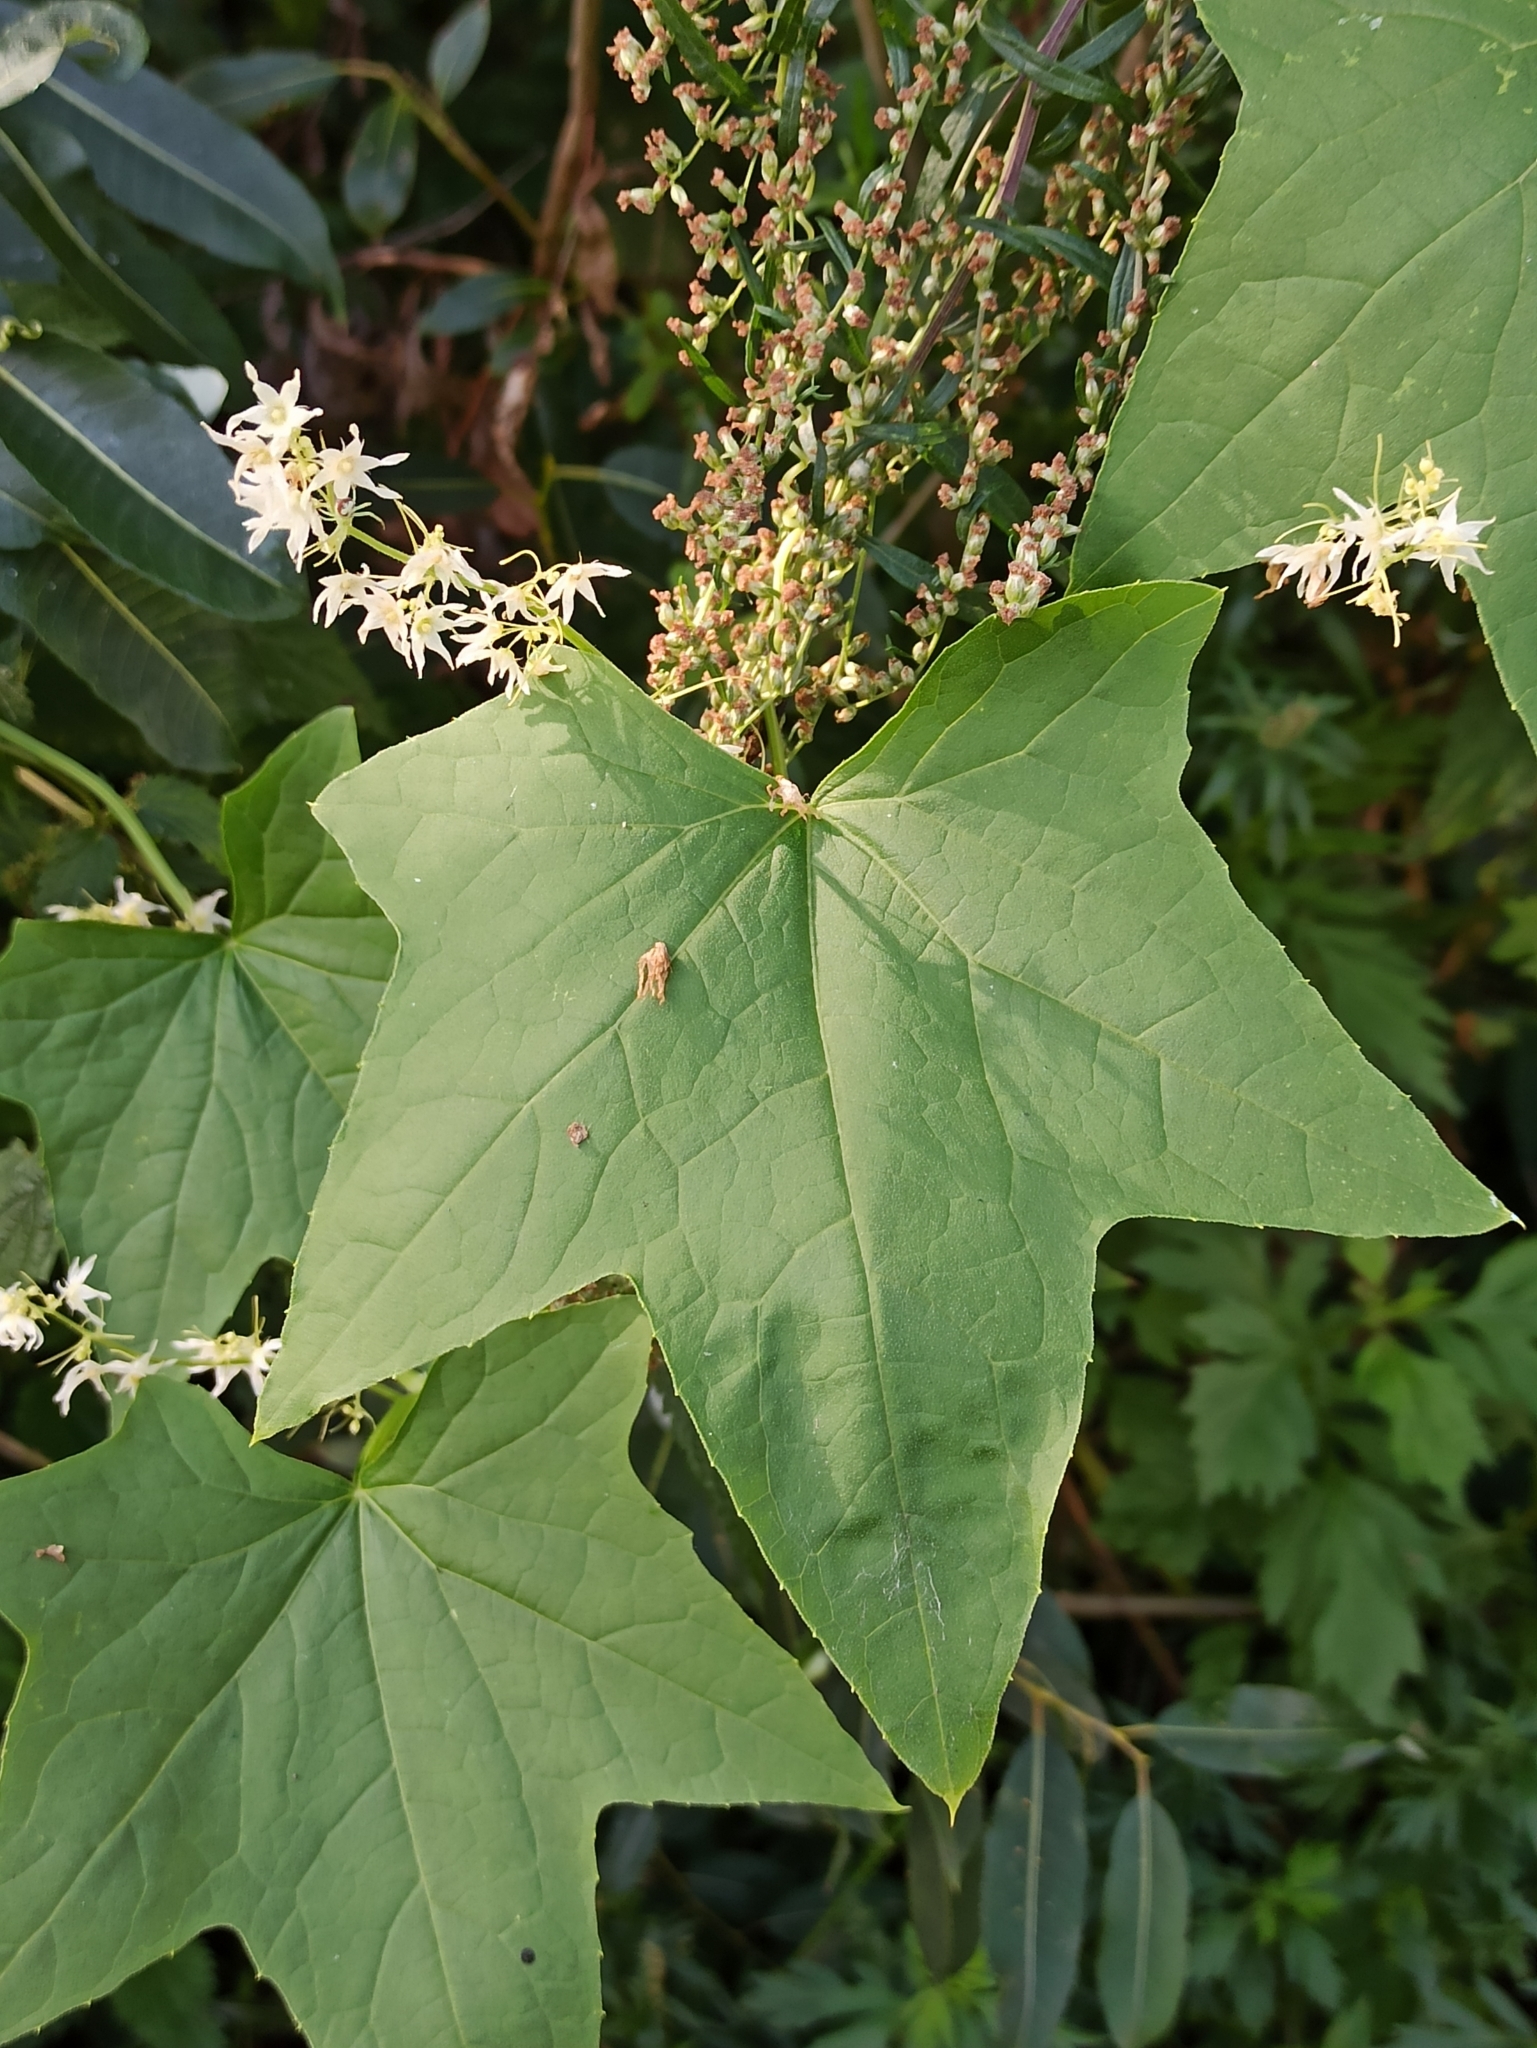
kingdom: Plantae
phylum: Tracheophyta
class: Magnoliopsida
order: Cucurbitales
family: Cucurbitaceae
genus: Echinocystis
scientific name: Echinocystis lobata
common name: Wild cucumber
